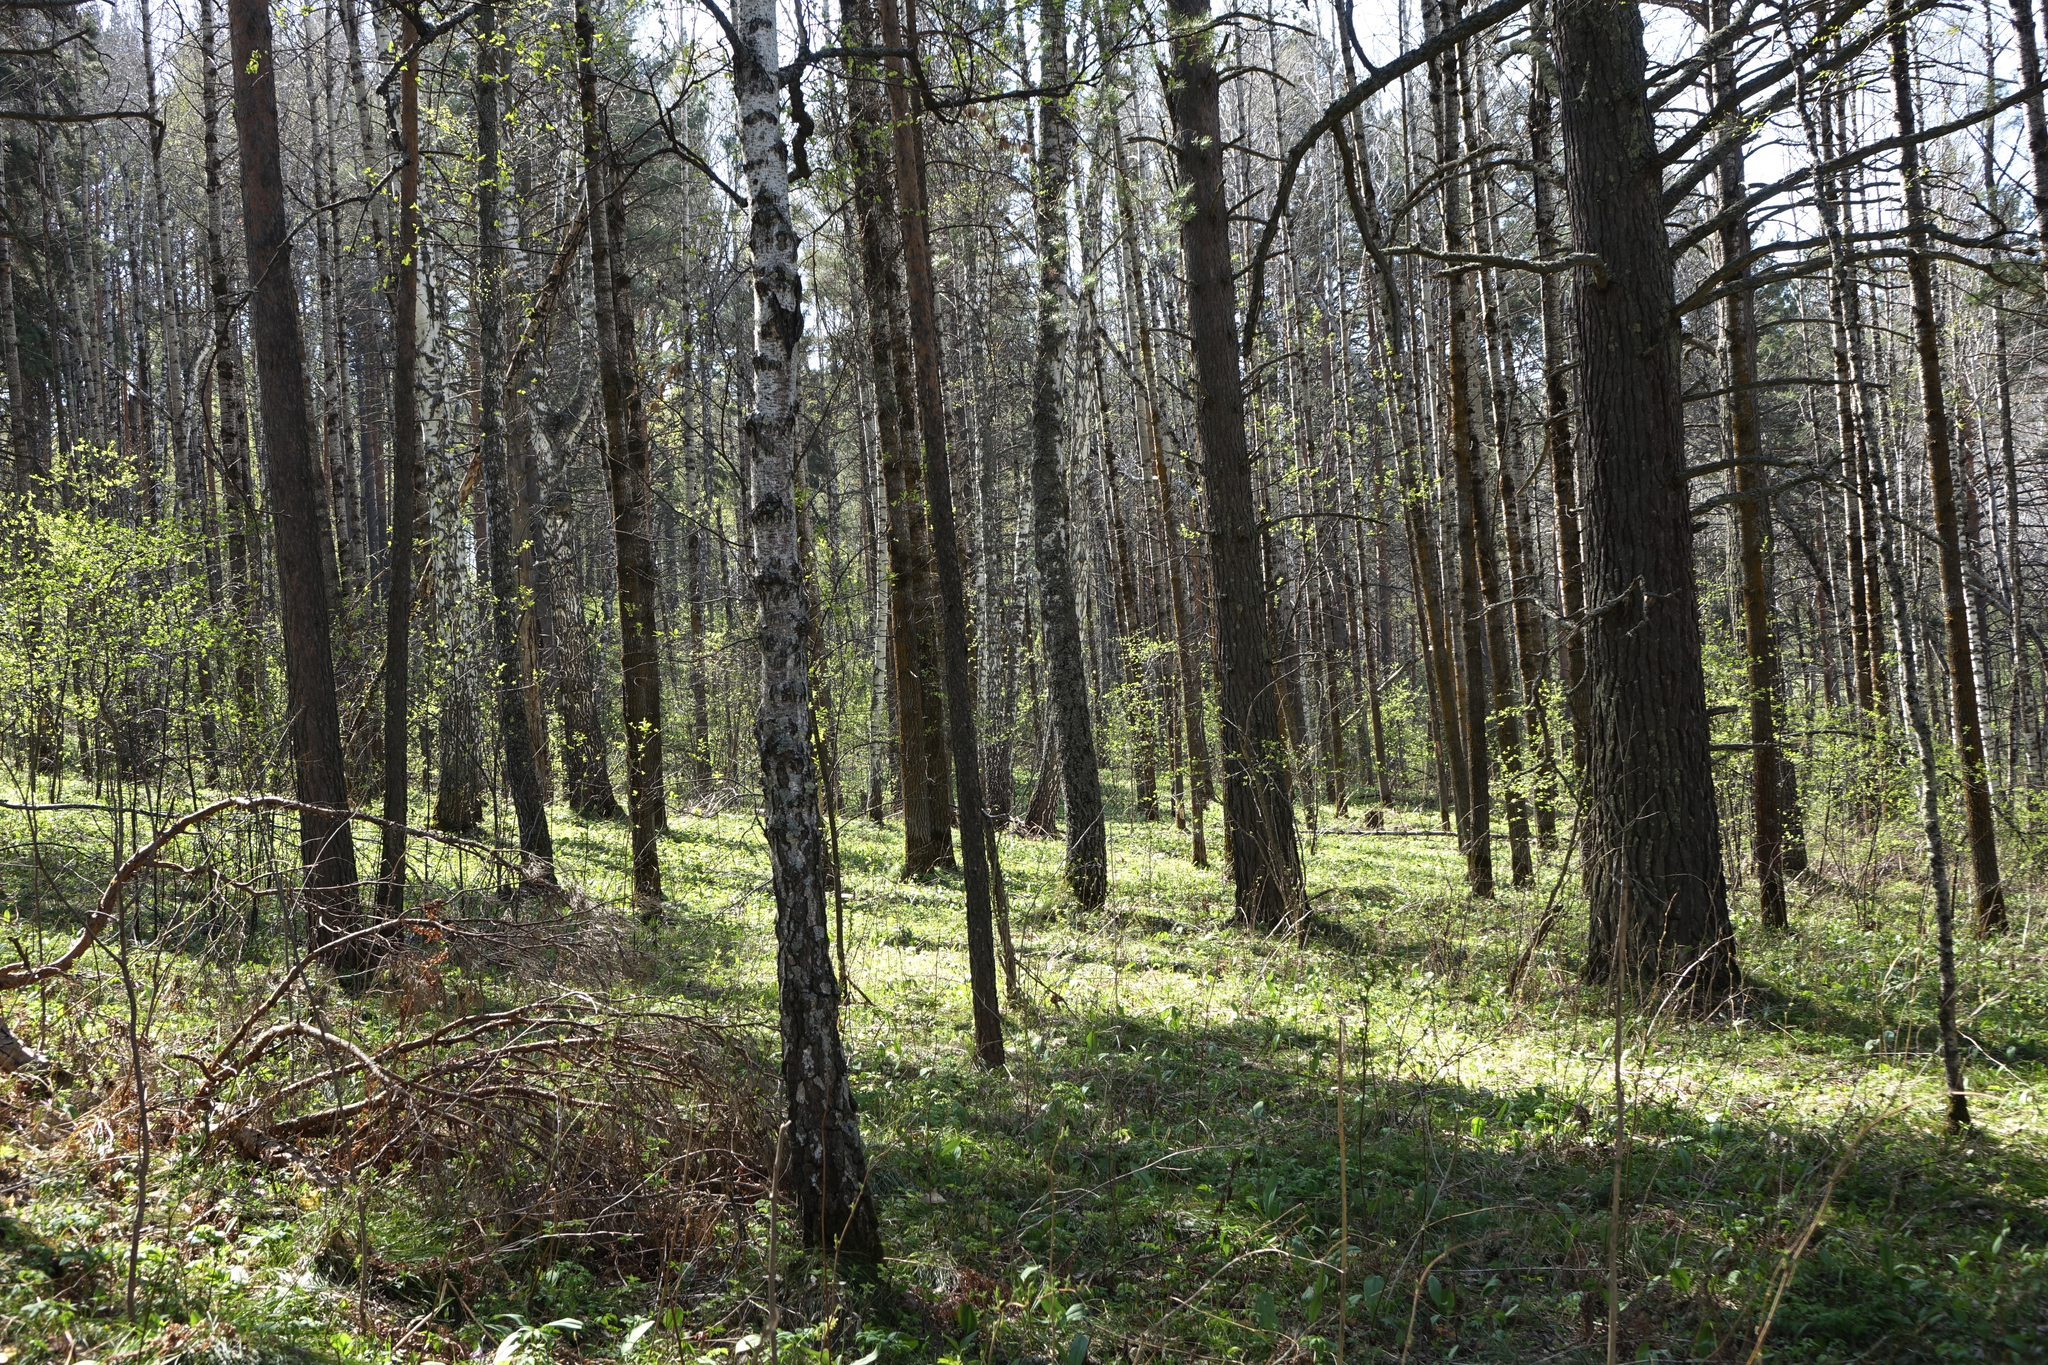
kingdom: Plantae
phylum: Tracheophyta
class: Pinopsida
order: Pinales
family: Pinaceae
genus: Pinus
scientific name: Pinus sylvestris
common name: Scots pine
